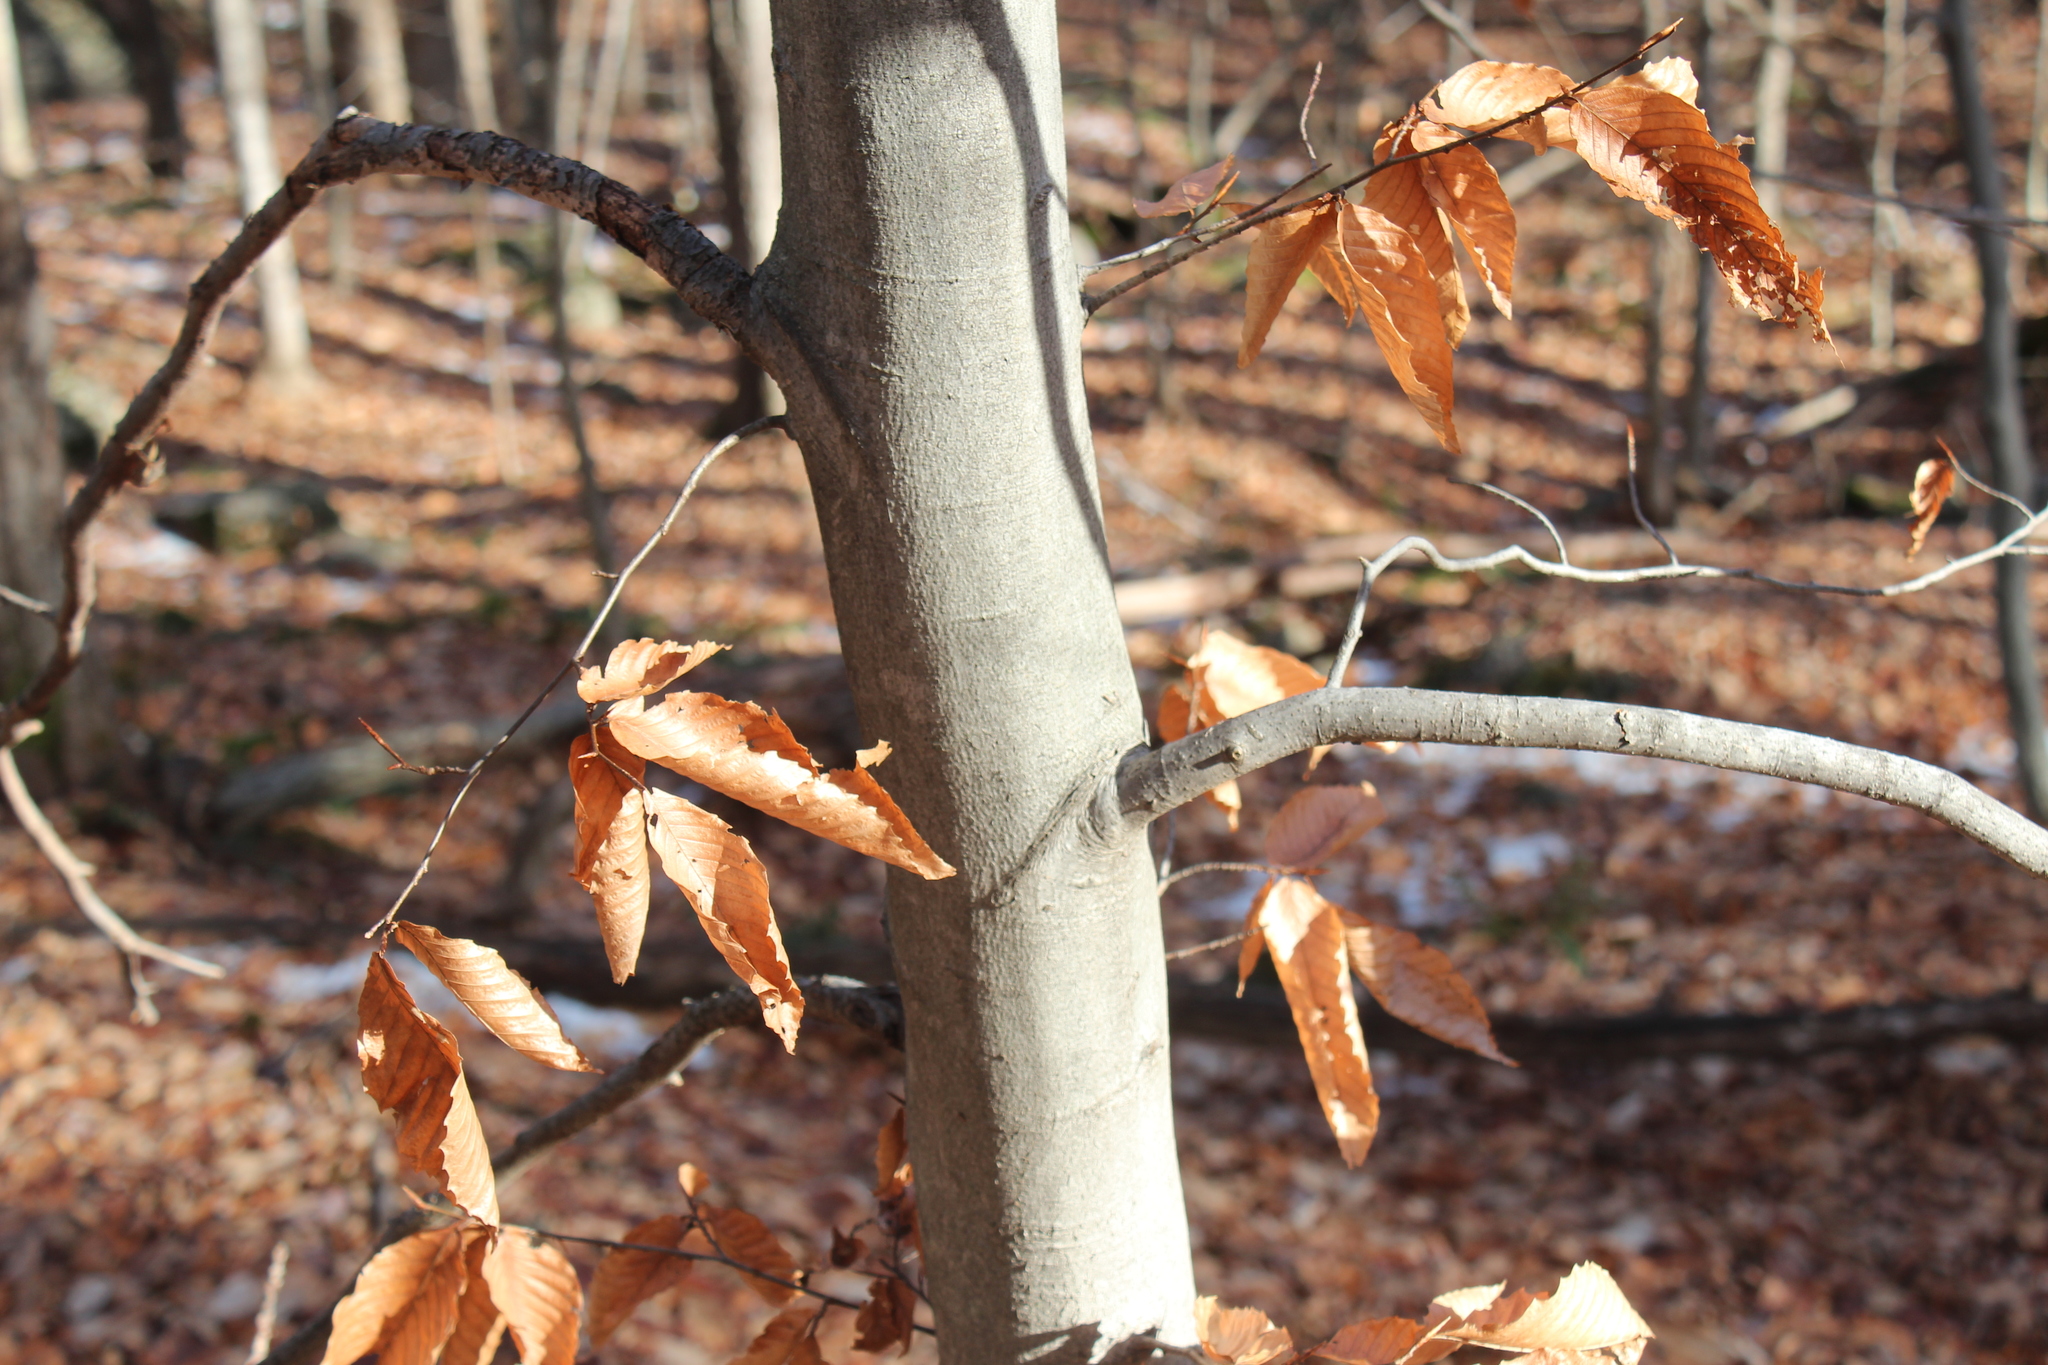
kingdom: Plantae
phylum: Tracheophyta
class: Magnoliopsida
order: Fagales
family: Fagaceae
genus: Fagus
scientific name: Fagus grandifolia
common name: American beech
